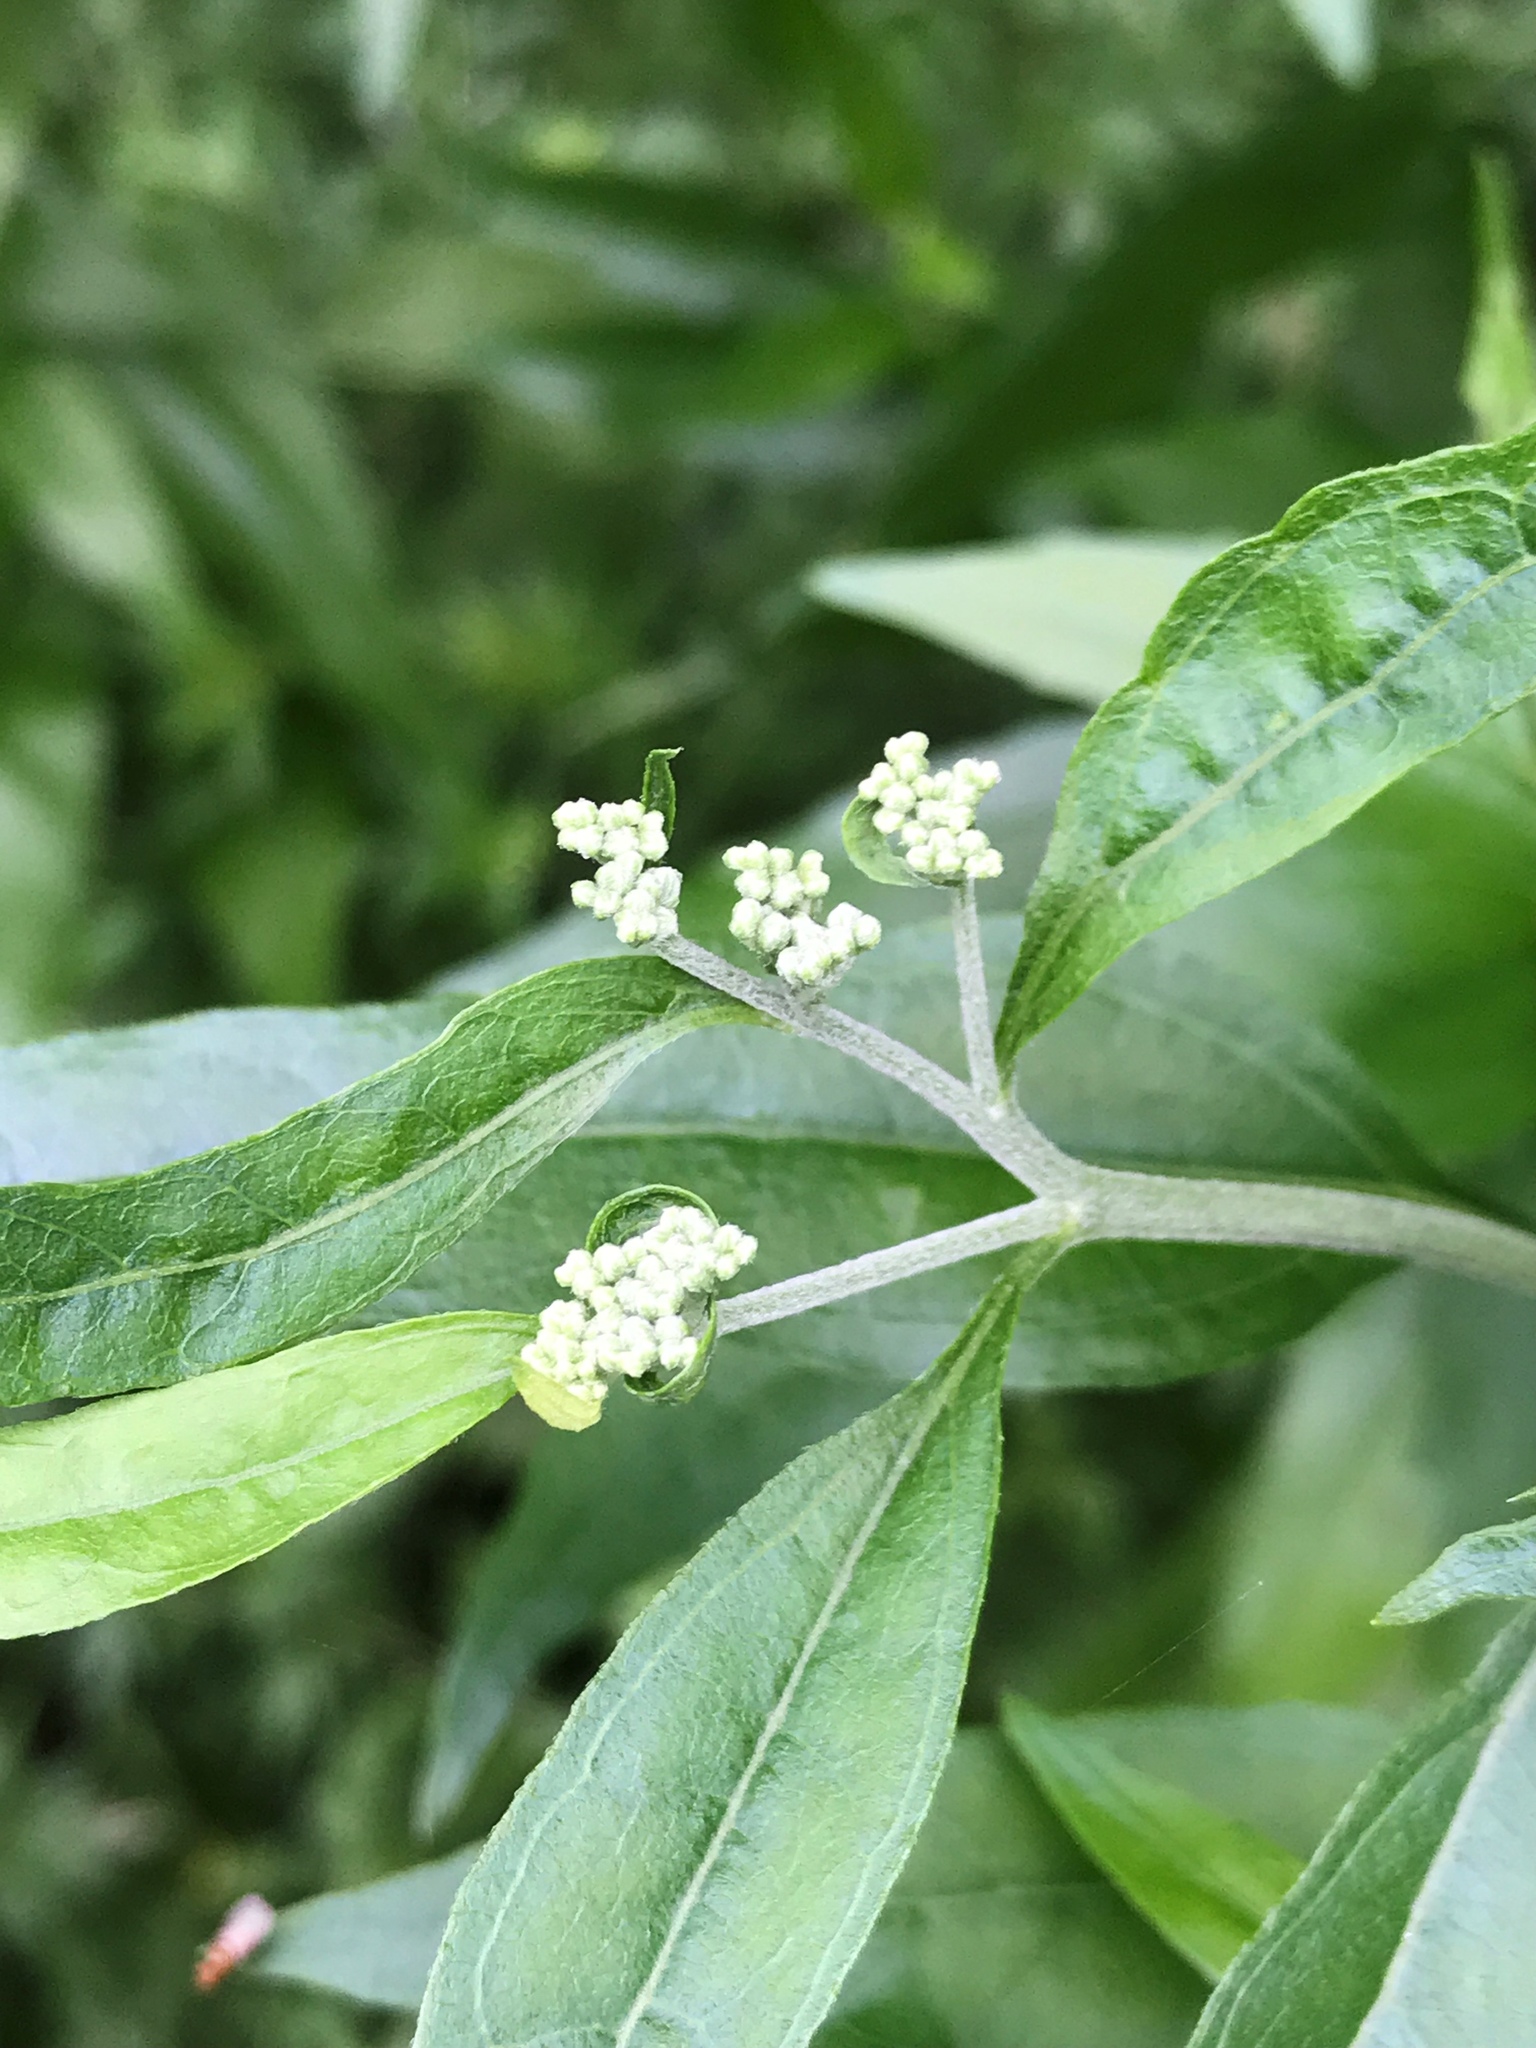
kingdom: Plantae
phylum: Tracheophyta
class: Magnoliopsida
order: Asterales
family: Asteraceae
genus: Eupatorium
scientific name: Eupatorium serotinum
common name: Late boneset
